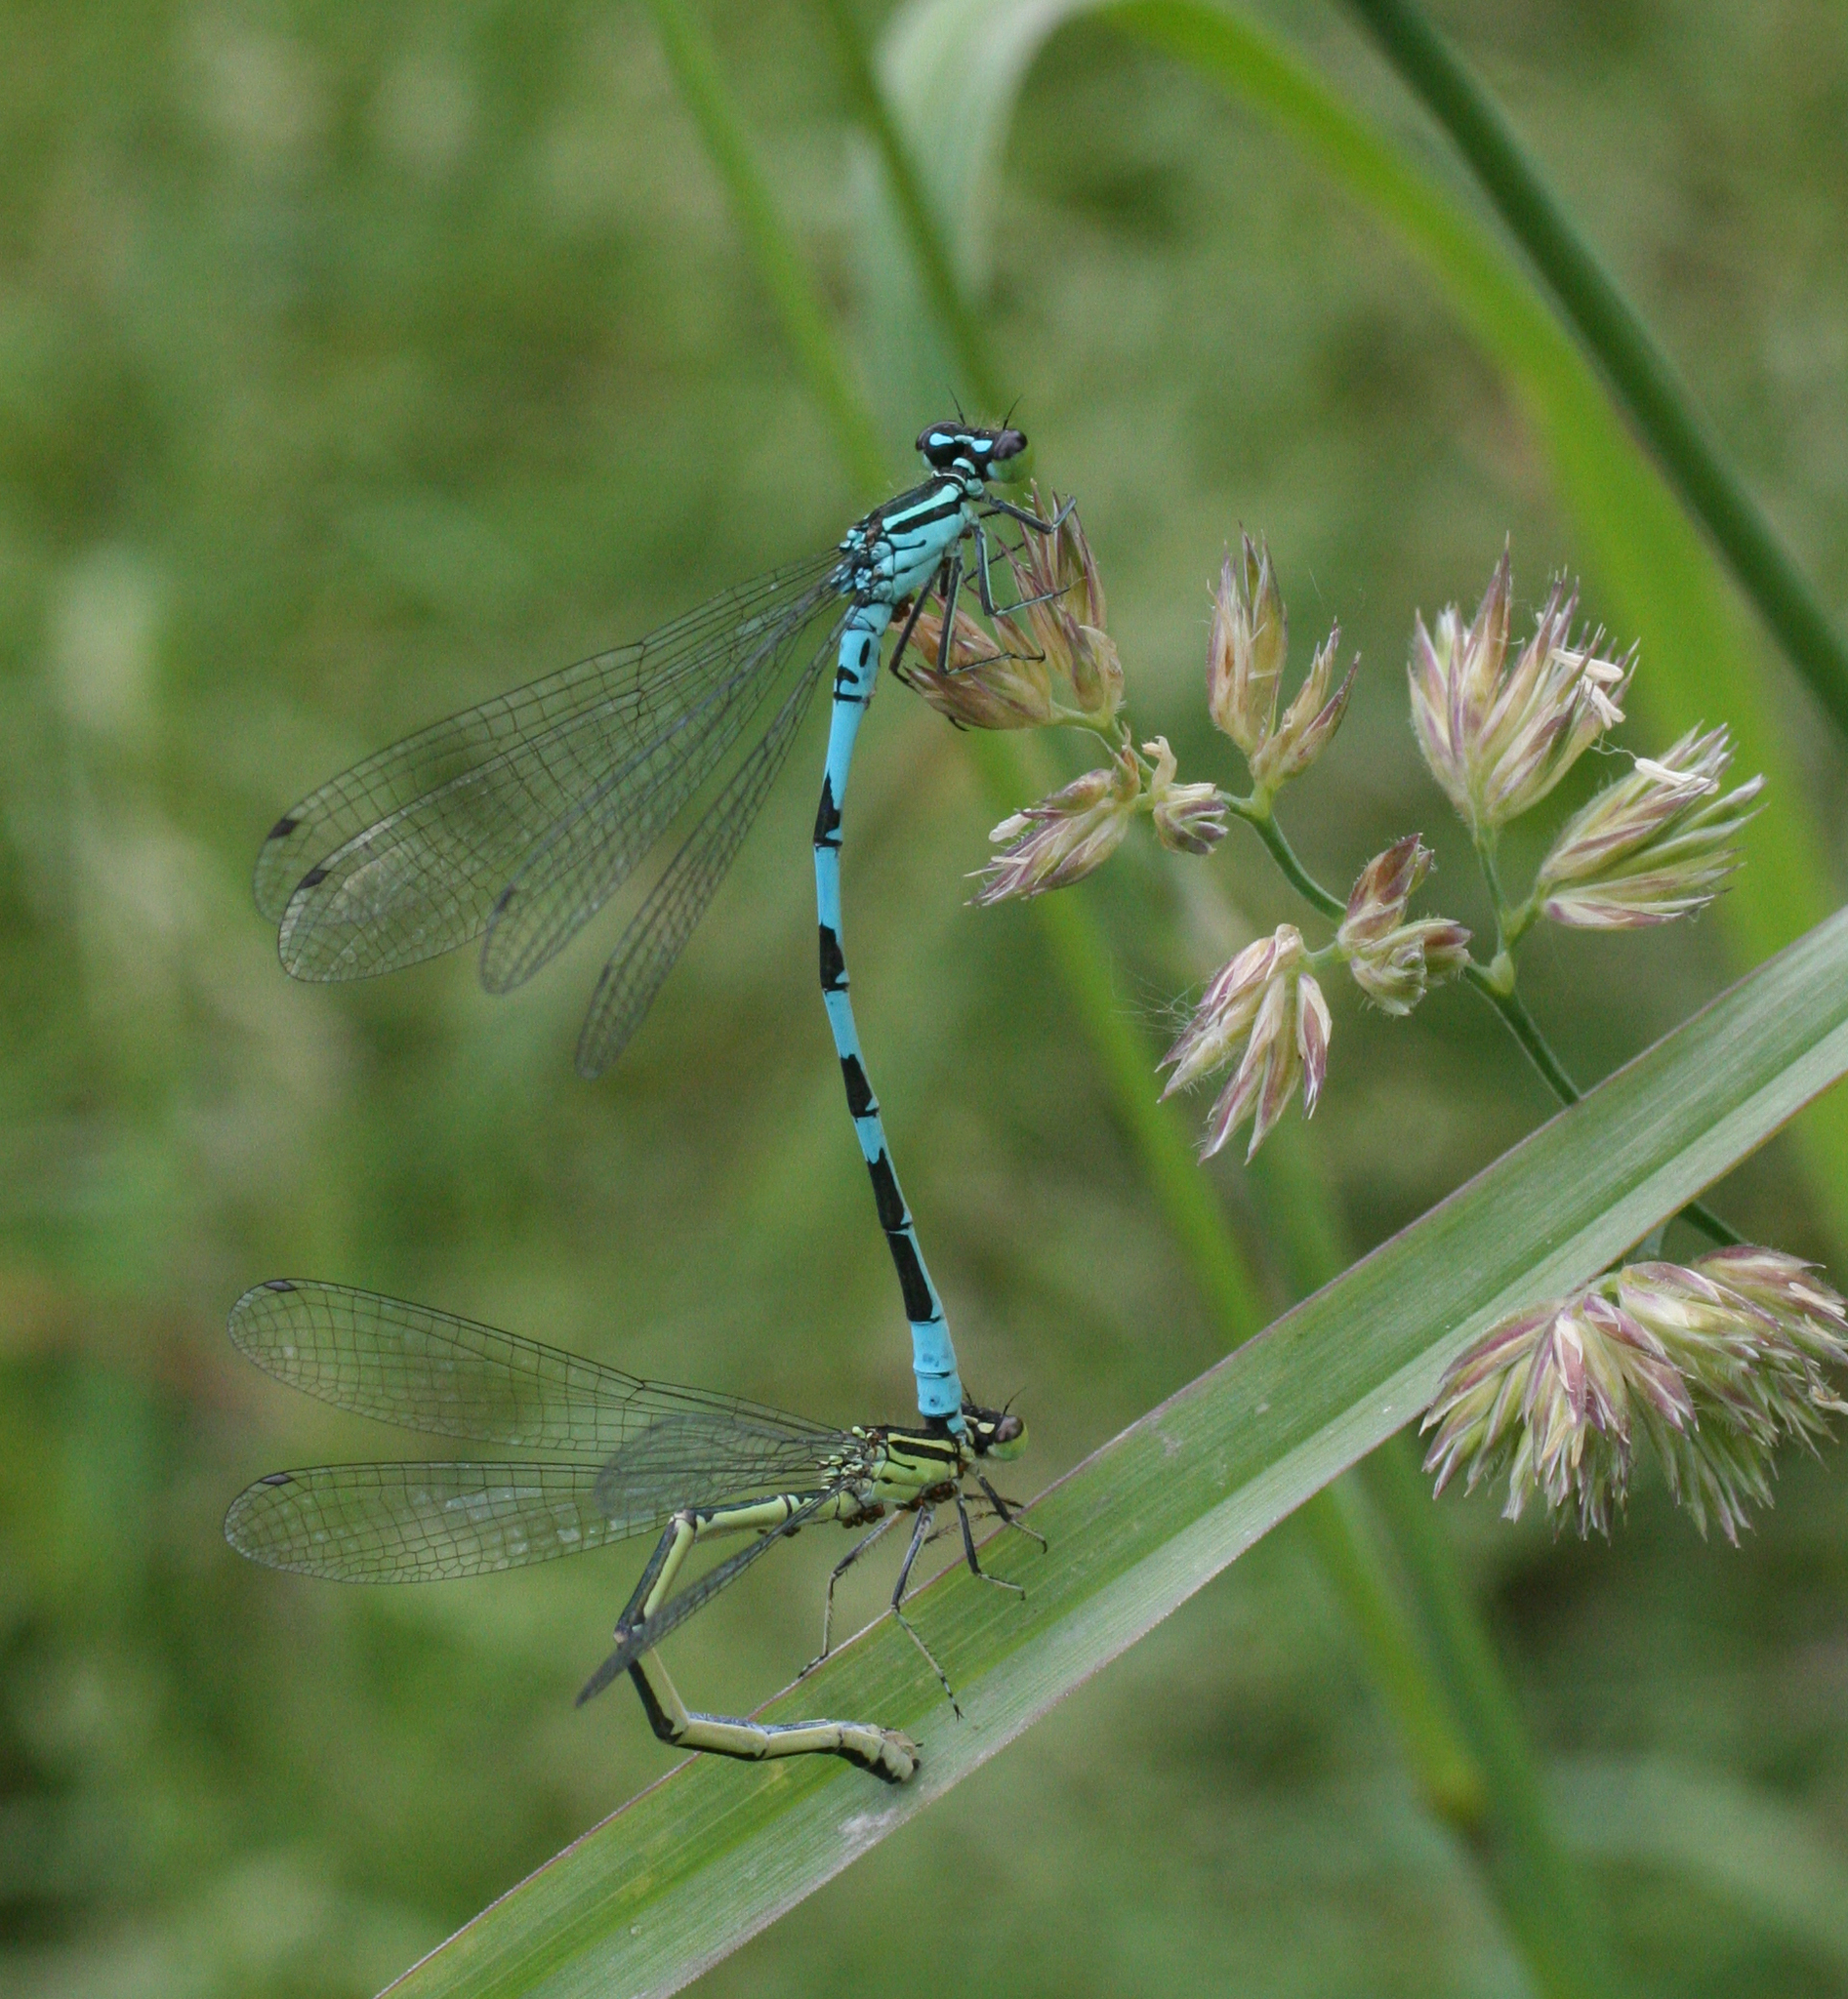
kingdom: Animalia
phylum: Arthropoda
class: Insecta
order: Odonata
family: Coenagrionidae
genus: Coenagrion
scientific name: Coenagrion hastulatum
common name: Spearhead bluet
